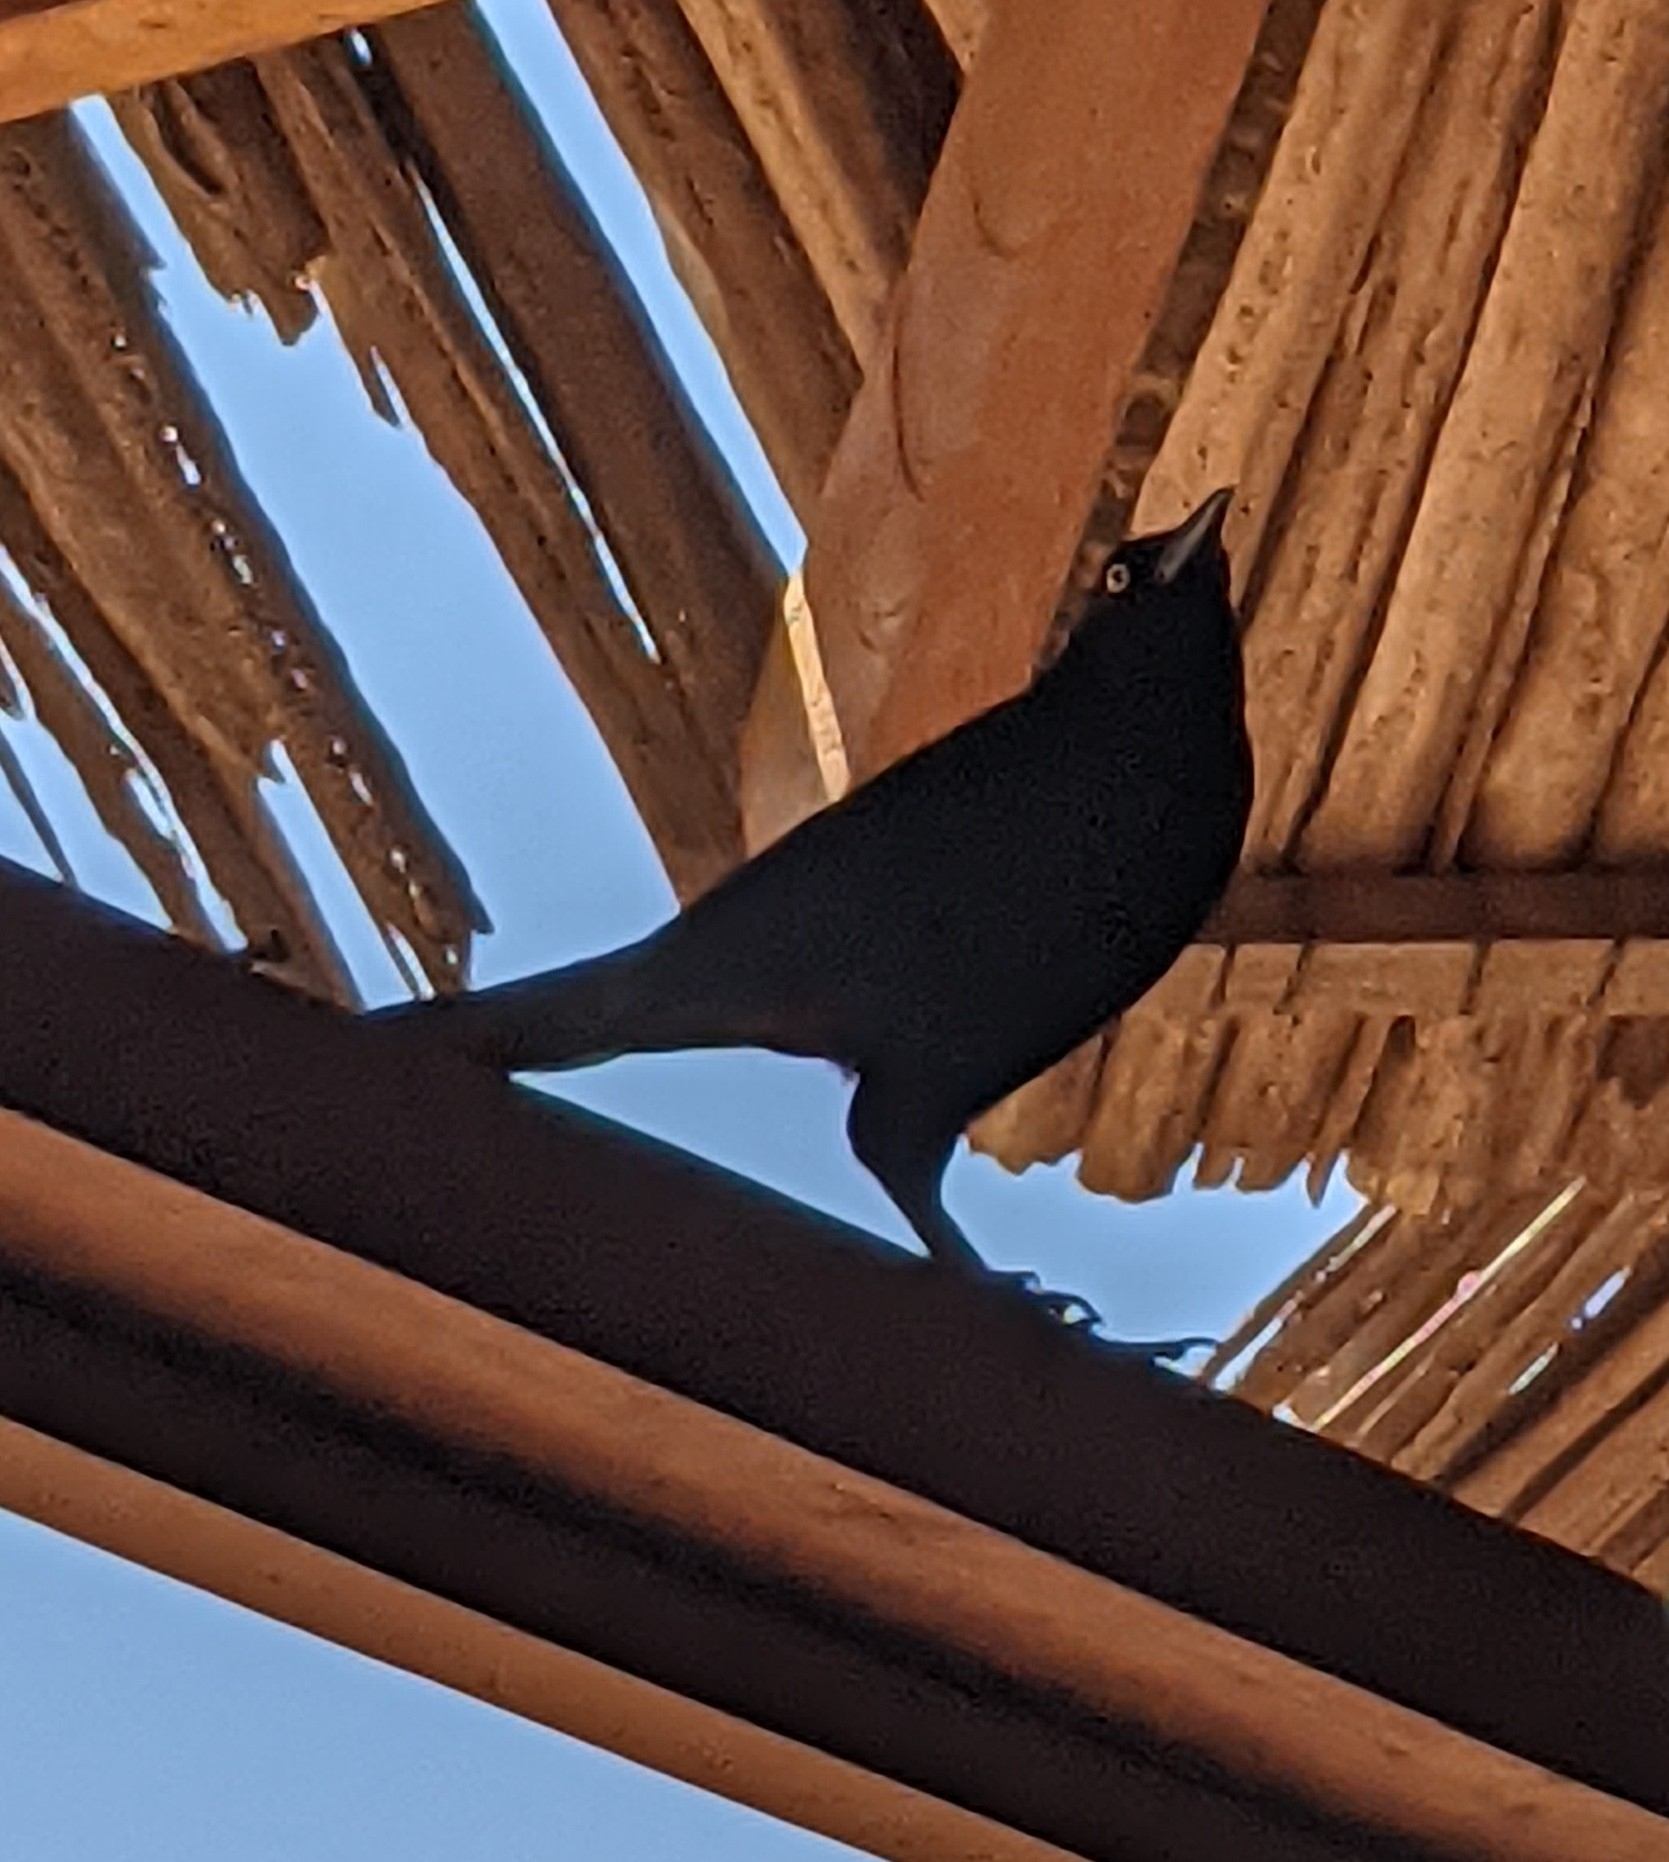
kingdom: Animalia
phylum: Chordata
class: Aves
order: Passeriformes
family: Icteridae
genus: Quiscalus
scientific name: Quiscalus lugubris
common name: Carib grackle
